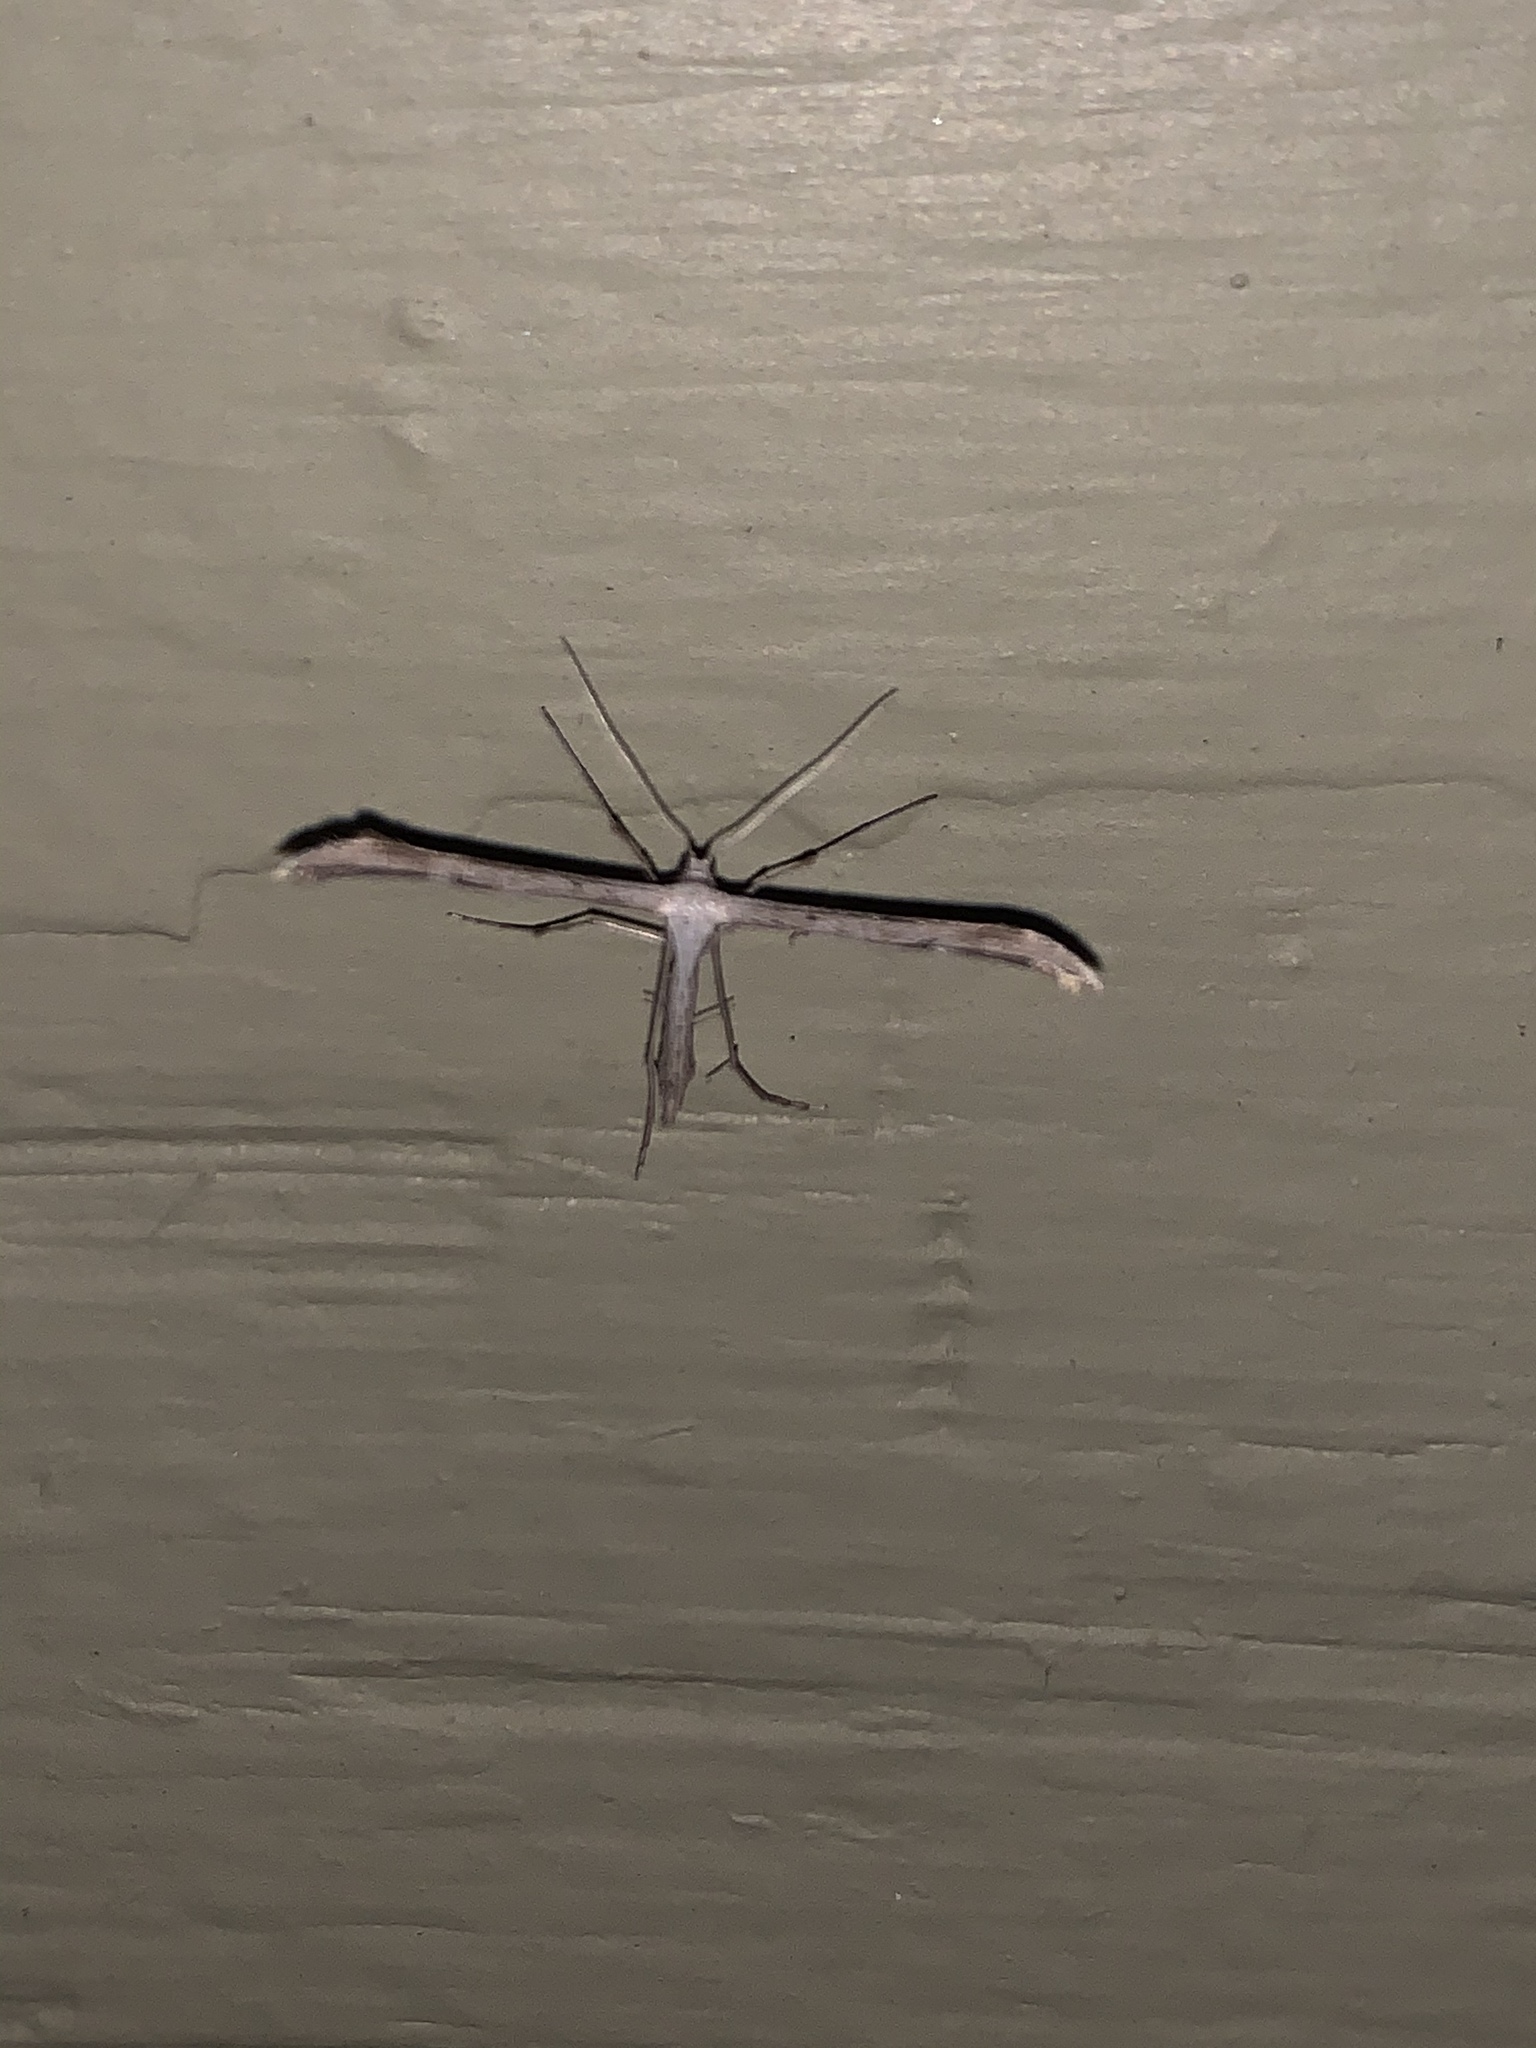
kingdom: Animalia
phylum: Arthropoda
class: Insecta
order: Lepidoptera
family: Pterophoridae
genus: Emmelina
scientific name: Emmelina monodactyla
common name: Common plume
